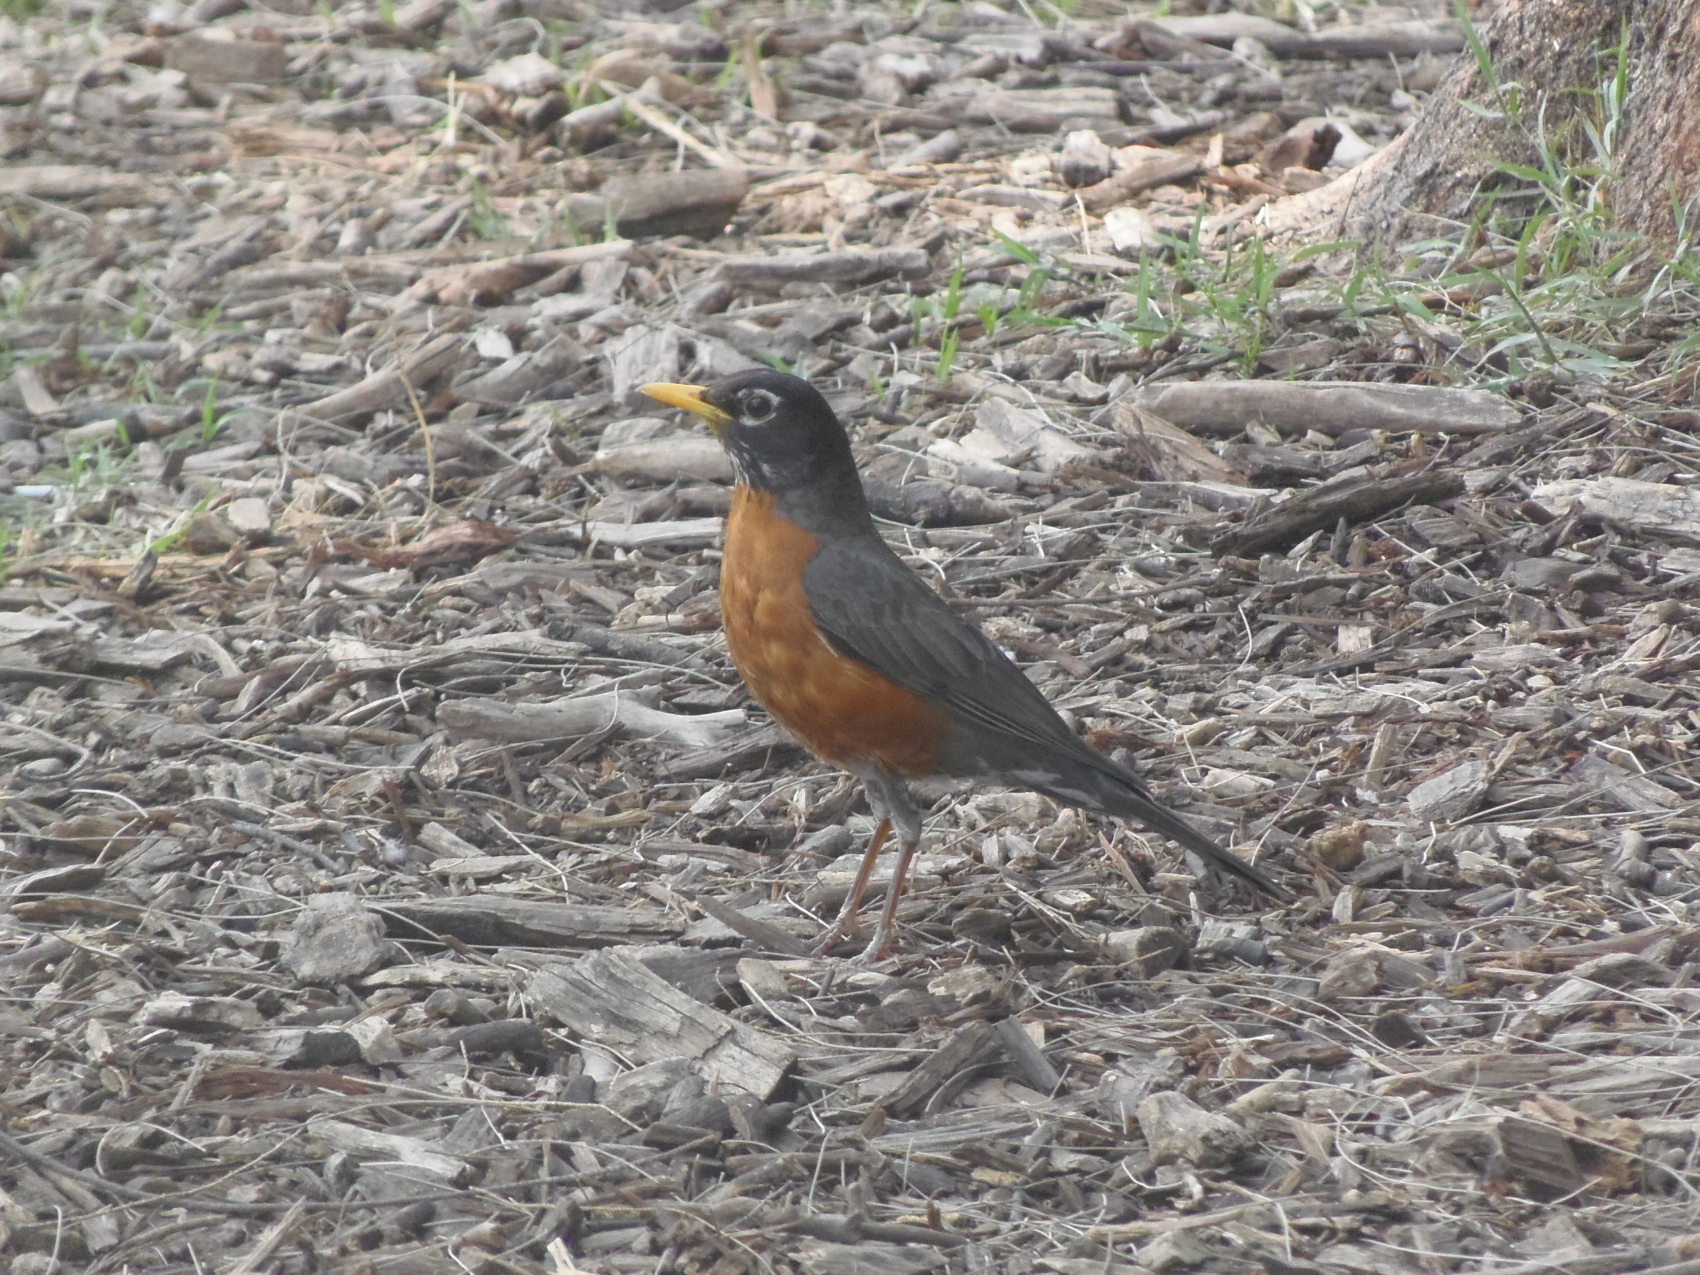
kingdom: Animalia
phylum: Chordata
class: Aves
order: Passeriformes
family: Turdidae
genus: Turdus
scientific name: Turdus migratorius
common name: American robin
